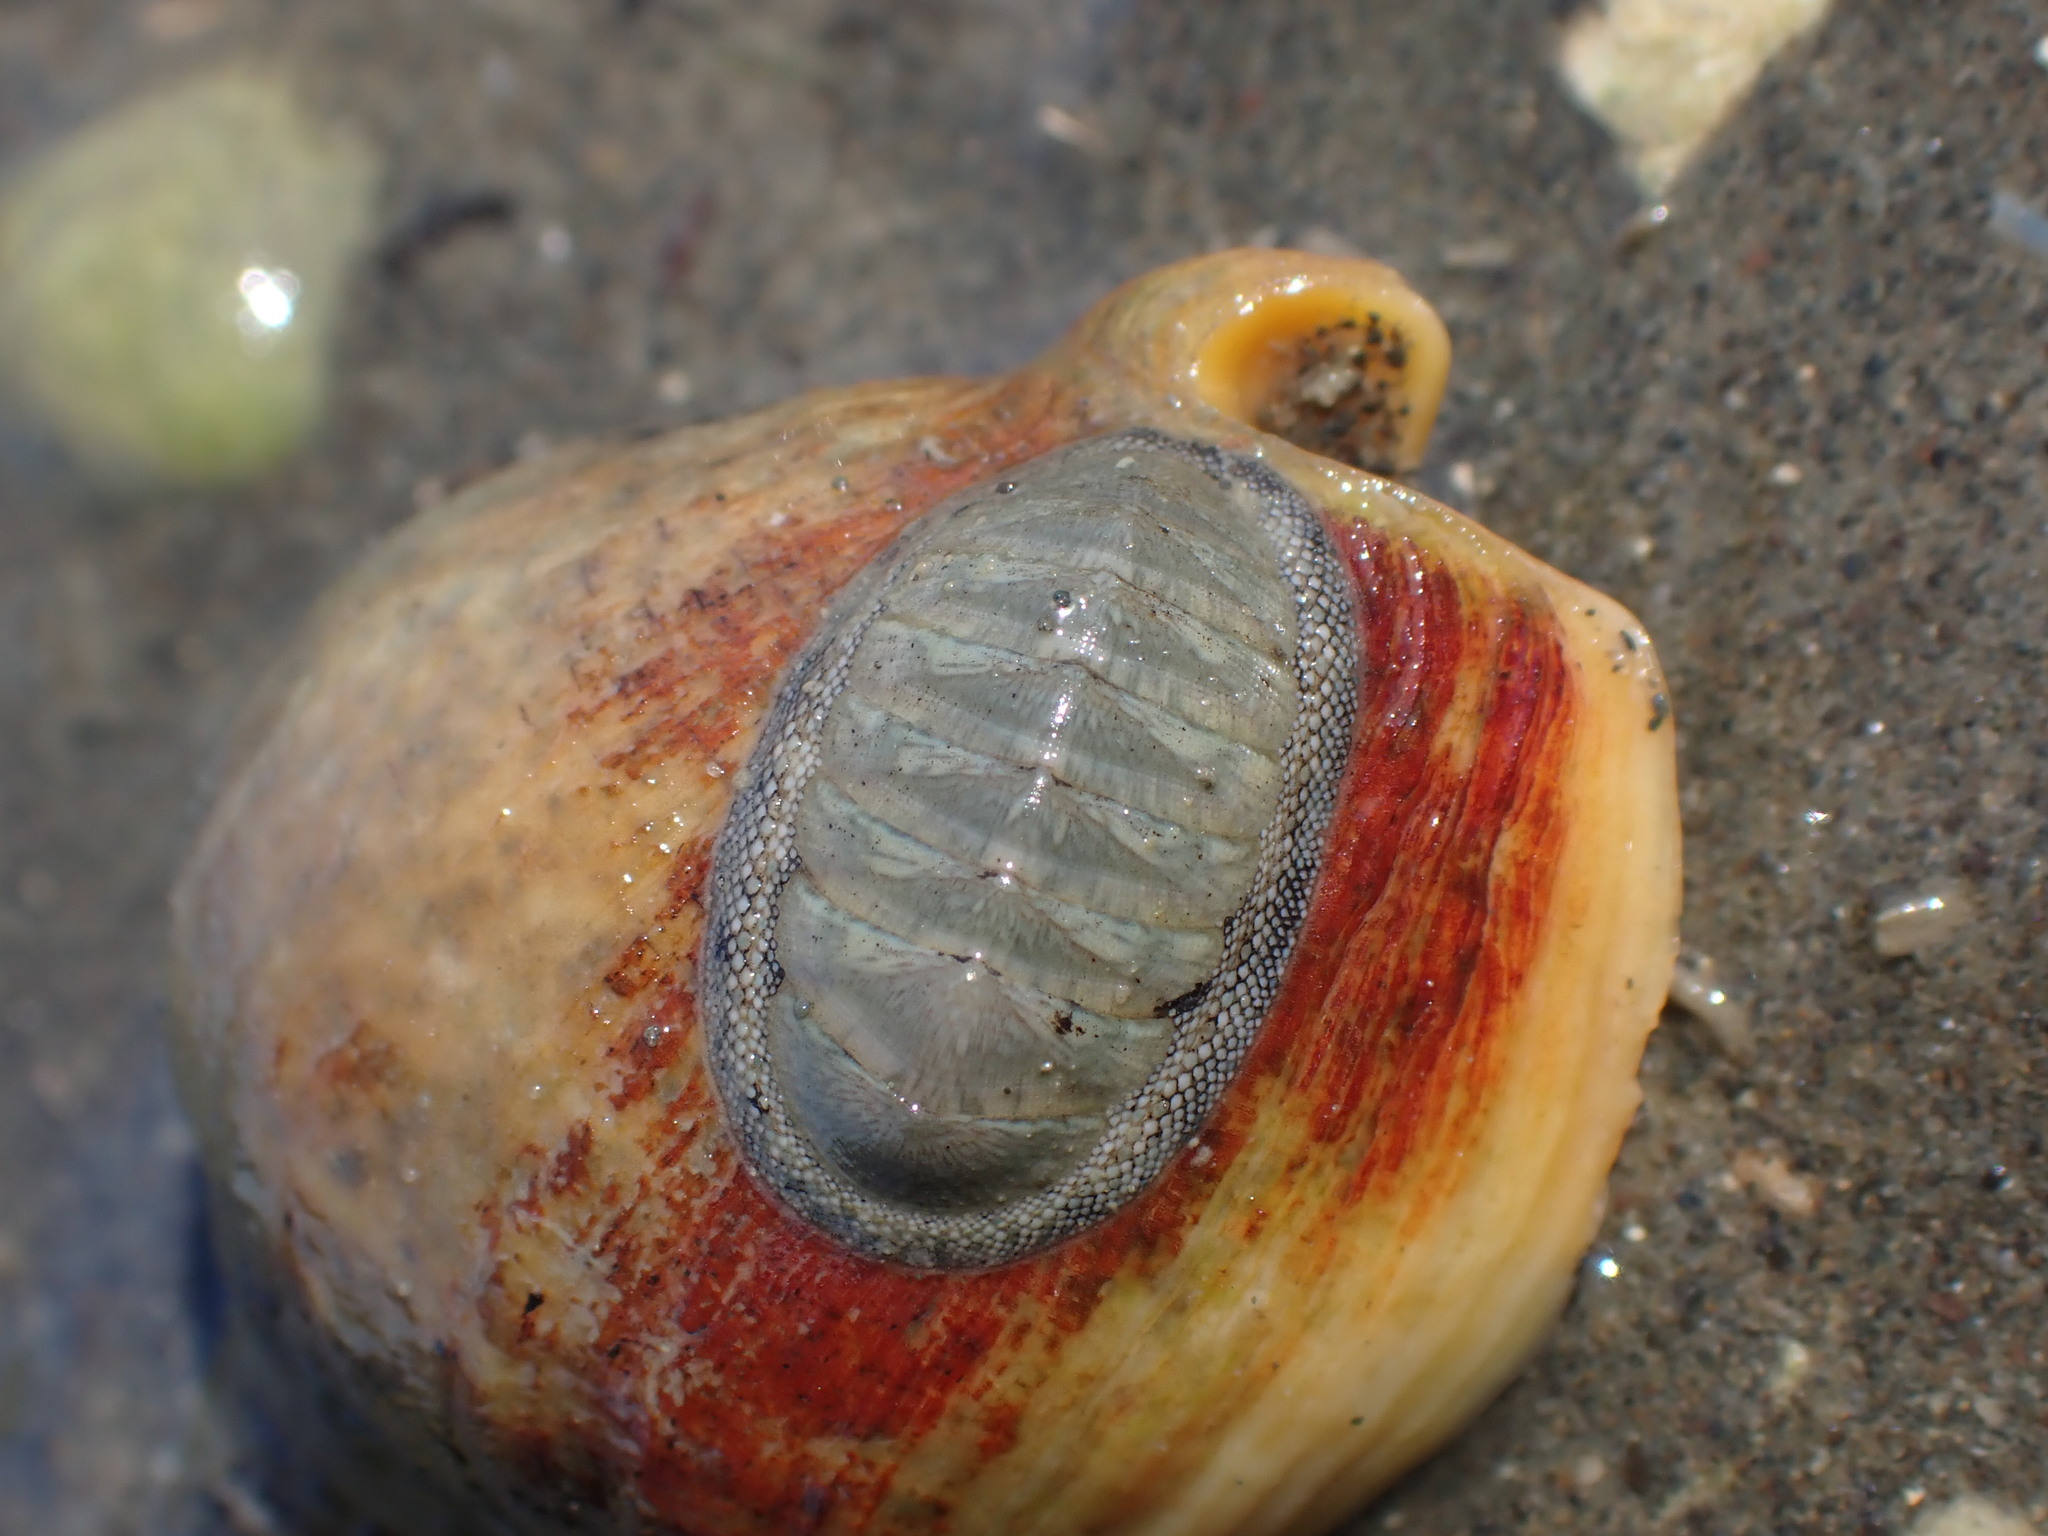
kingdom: Animalia
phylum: Mollusca
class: Polyplacophora
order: Chitonida
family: Chitonidae
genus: Chiton
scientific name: Chiton glaucus
